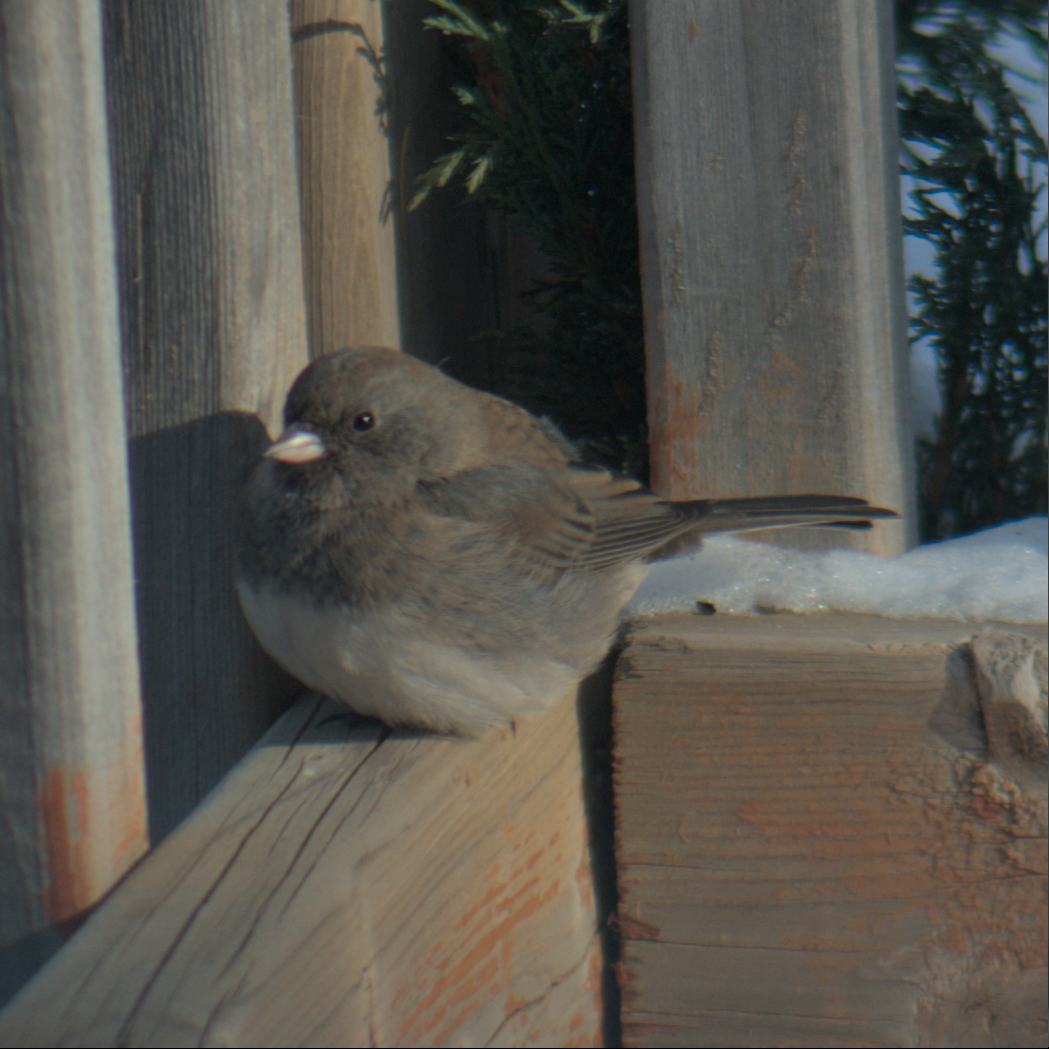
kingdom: Animalia
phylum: Chordata
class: Aves
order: Passeriformes
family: Passerellidae
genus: Junco
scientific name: Junco hyemalis
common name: Dark-eyed junco
